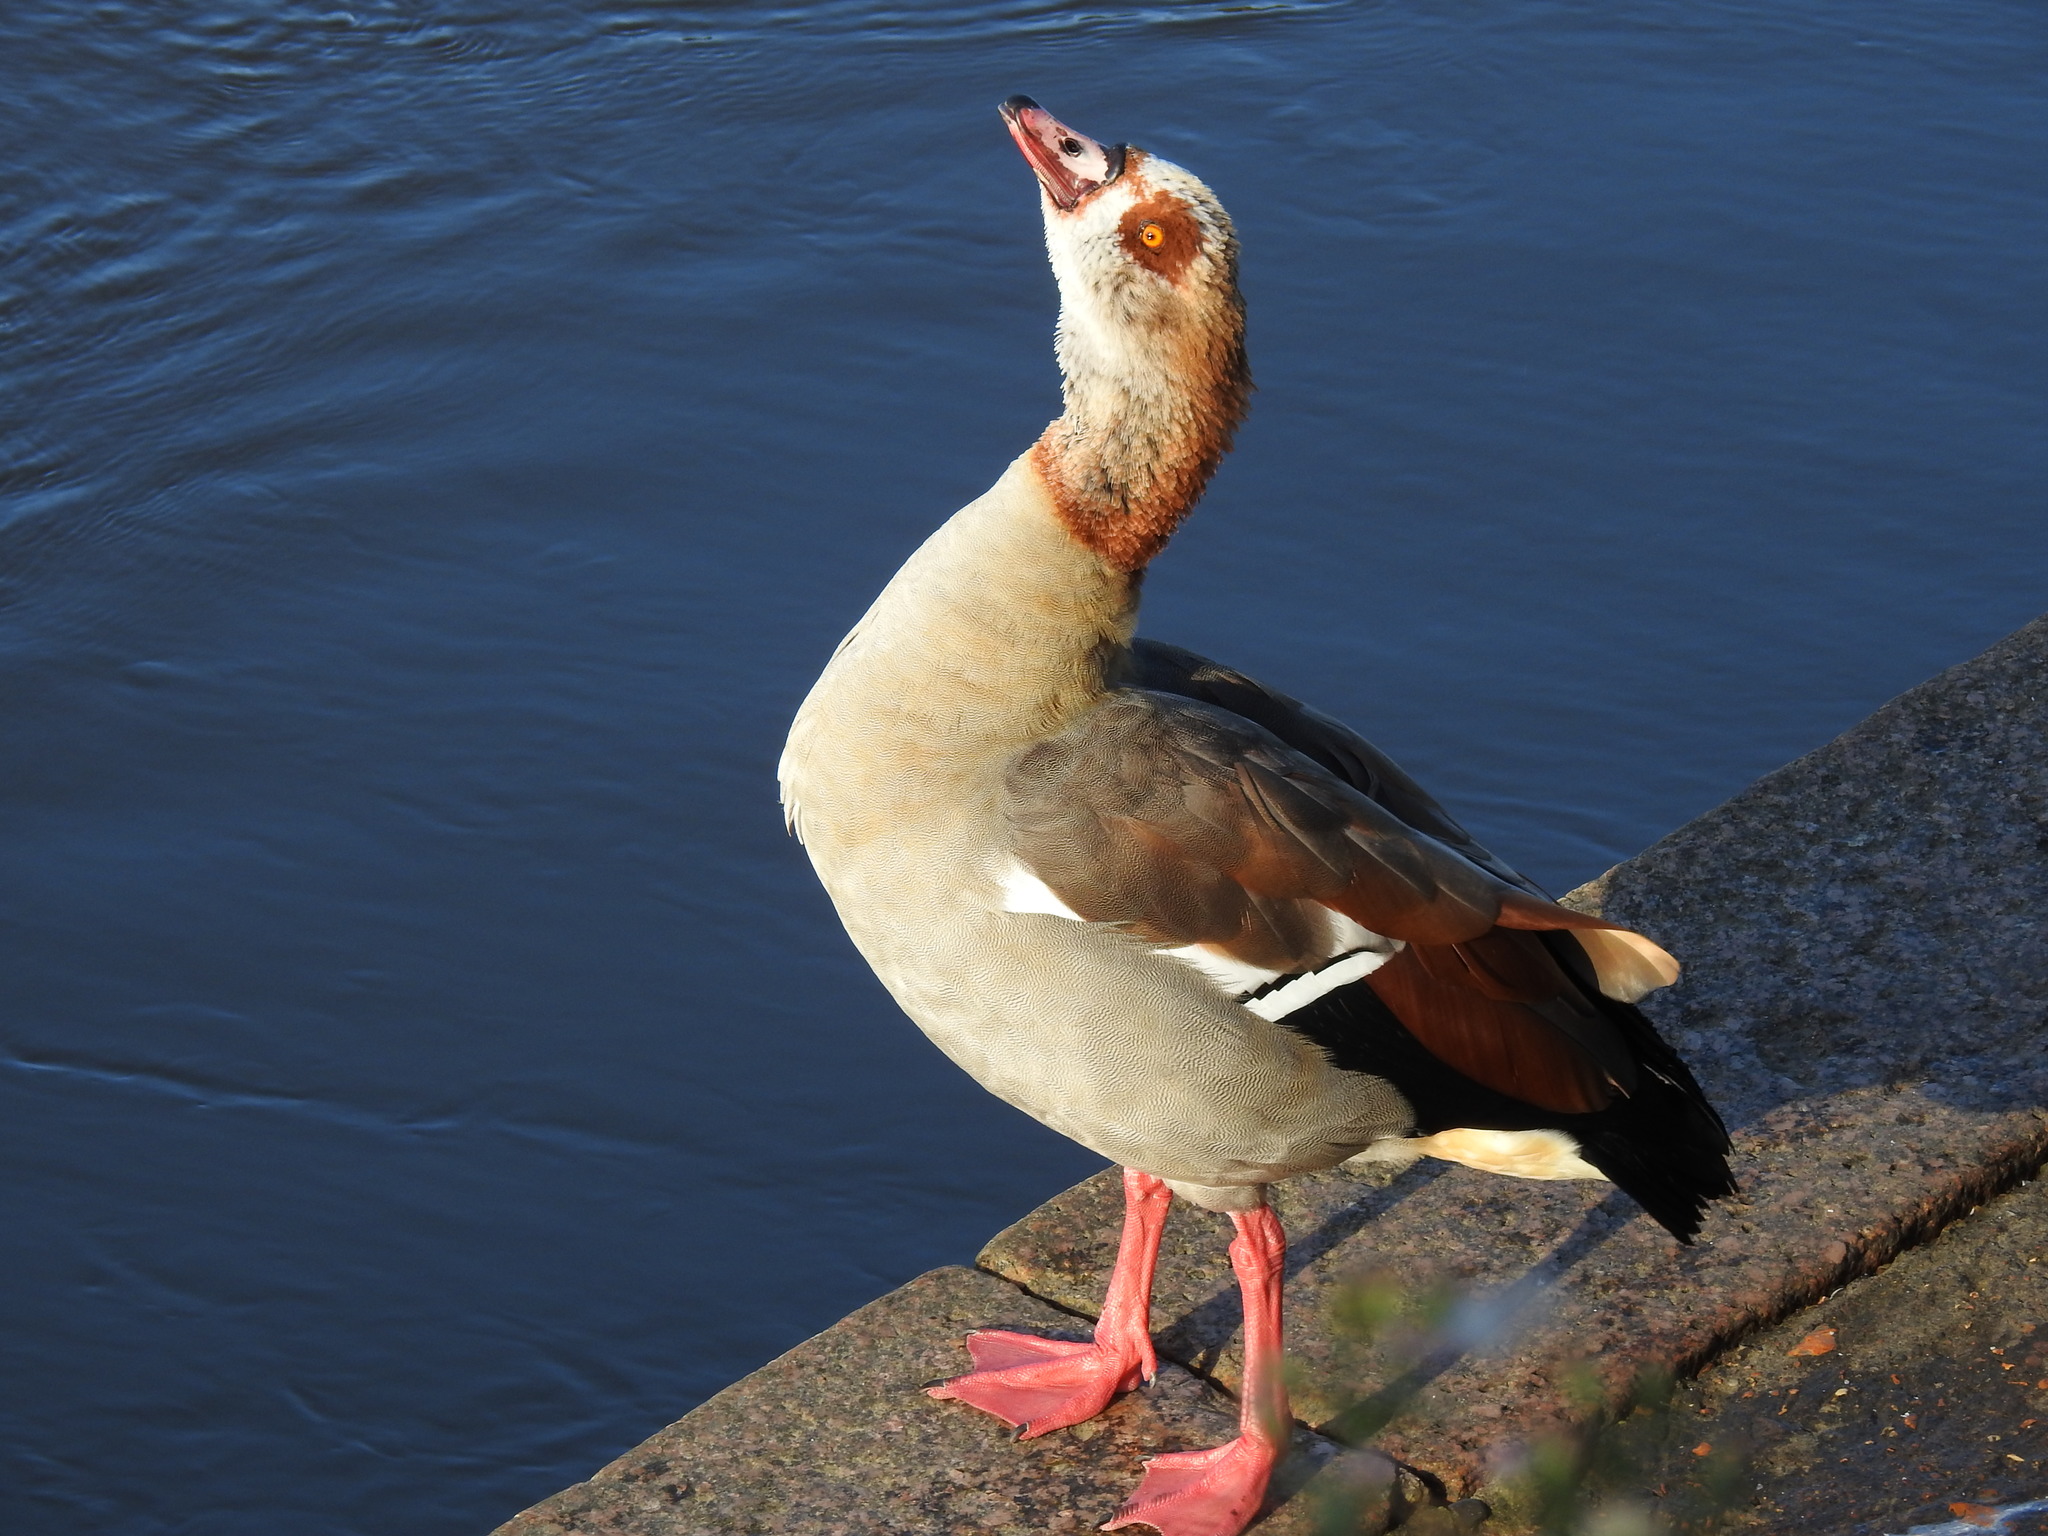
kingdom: Animalia
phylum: Chordata
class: Aves
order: Anseriformes
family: Anatidae
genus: Alopochen
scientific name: Alopochen aegyptiaca
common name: Egyptian goose
